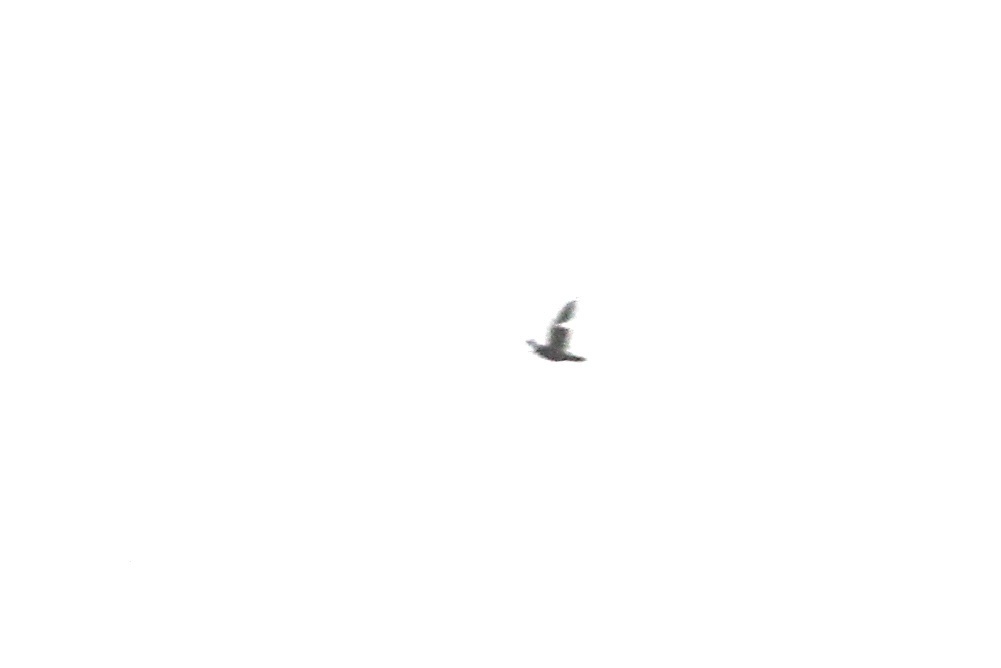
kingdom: Animalia
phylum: Chordata
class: Aves
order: Columbiformes
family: Columbidae
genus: Columba
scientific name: Columba livia
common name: Rock pigeon
